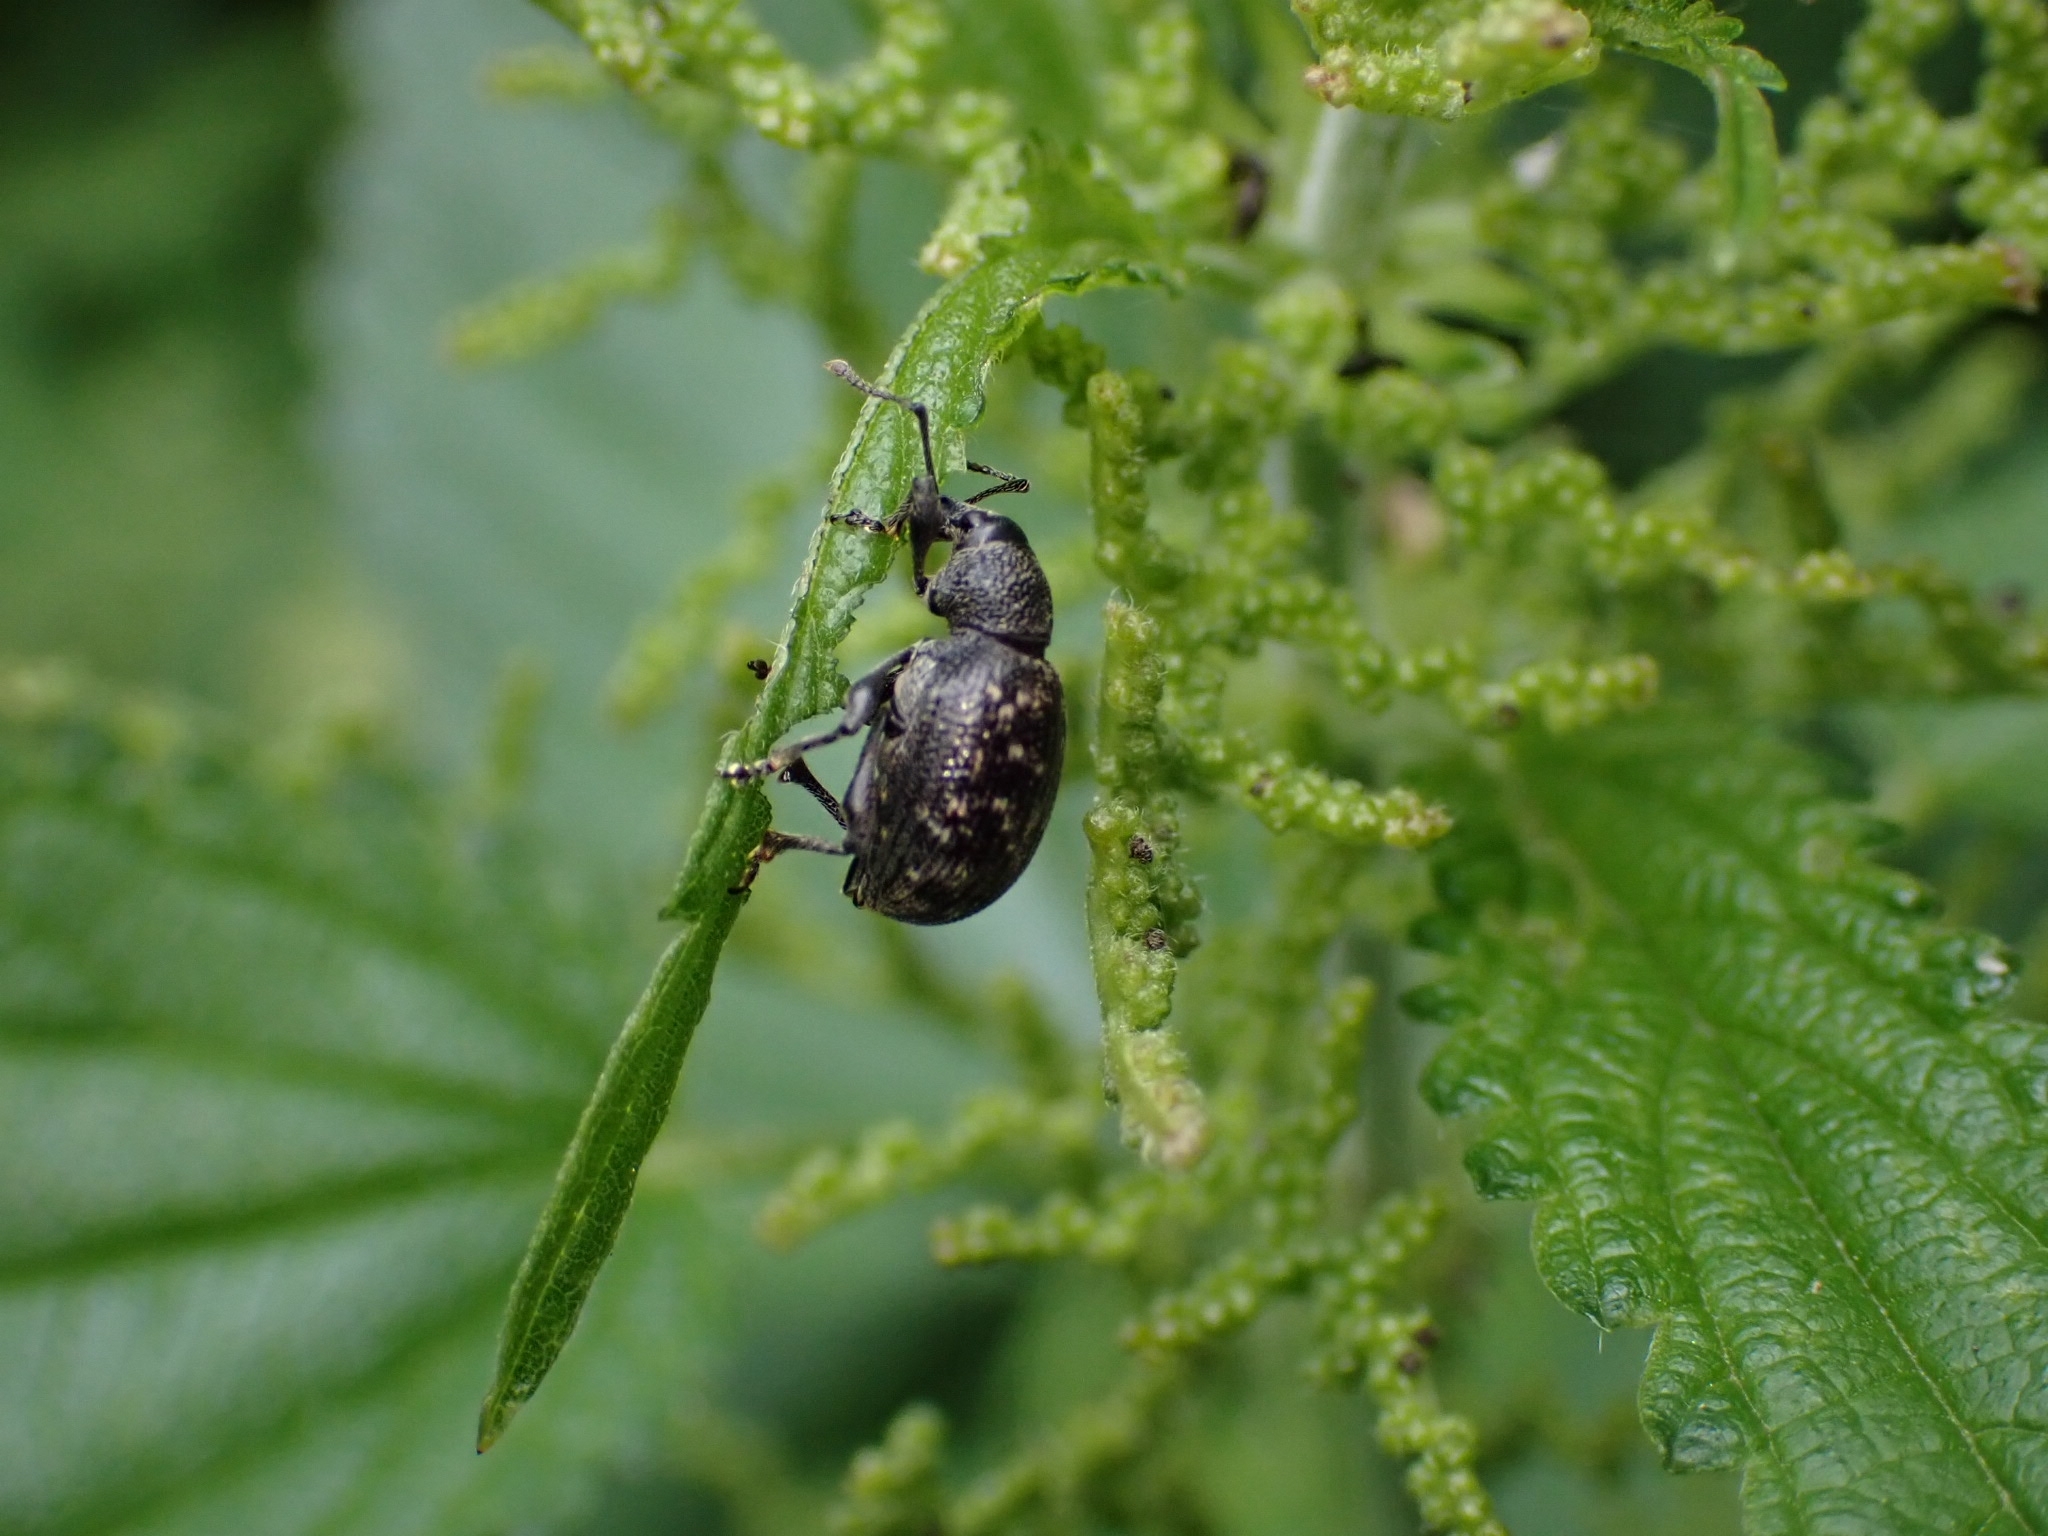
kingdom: Animalia
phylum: Arthropoda
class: Insecta
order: Coleoptera
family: Curculionidae
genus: Otiorhynchus
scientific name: Otiorhynchus tristis
